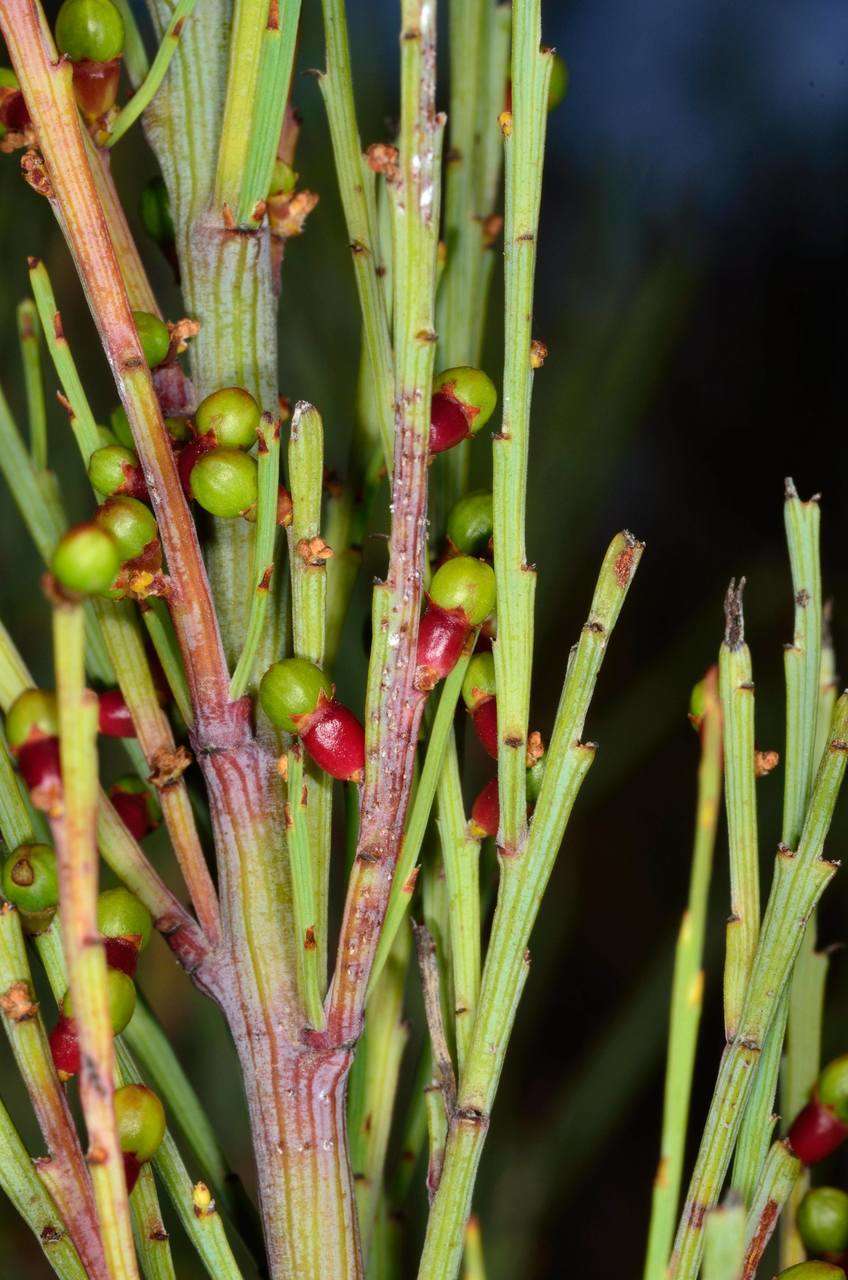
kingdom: Plantae
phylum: Tracheophyta
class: Magnoliopsida
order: Santalales
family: Santalaceae
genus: Exocarpos
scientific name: Exocarpos strictus
